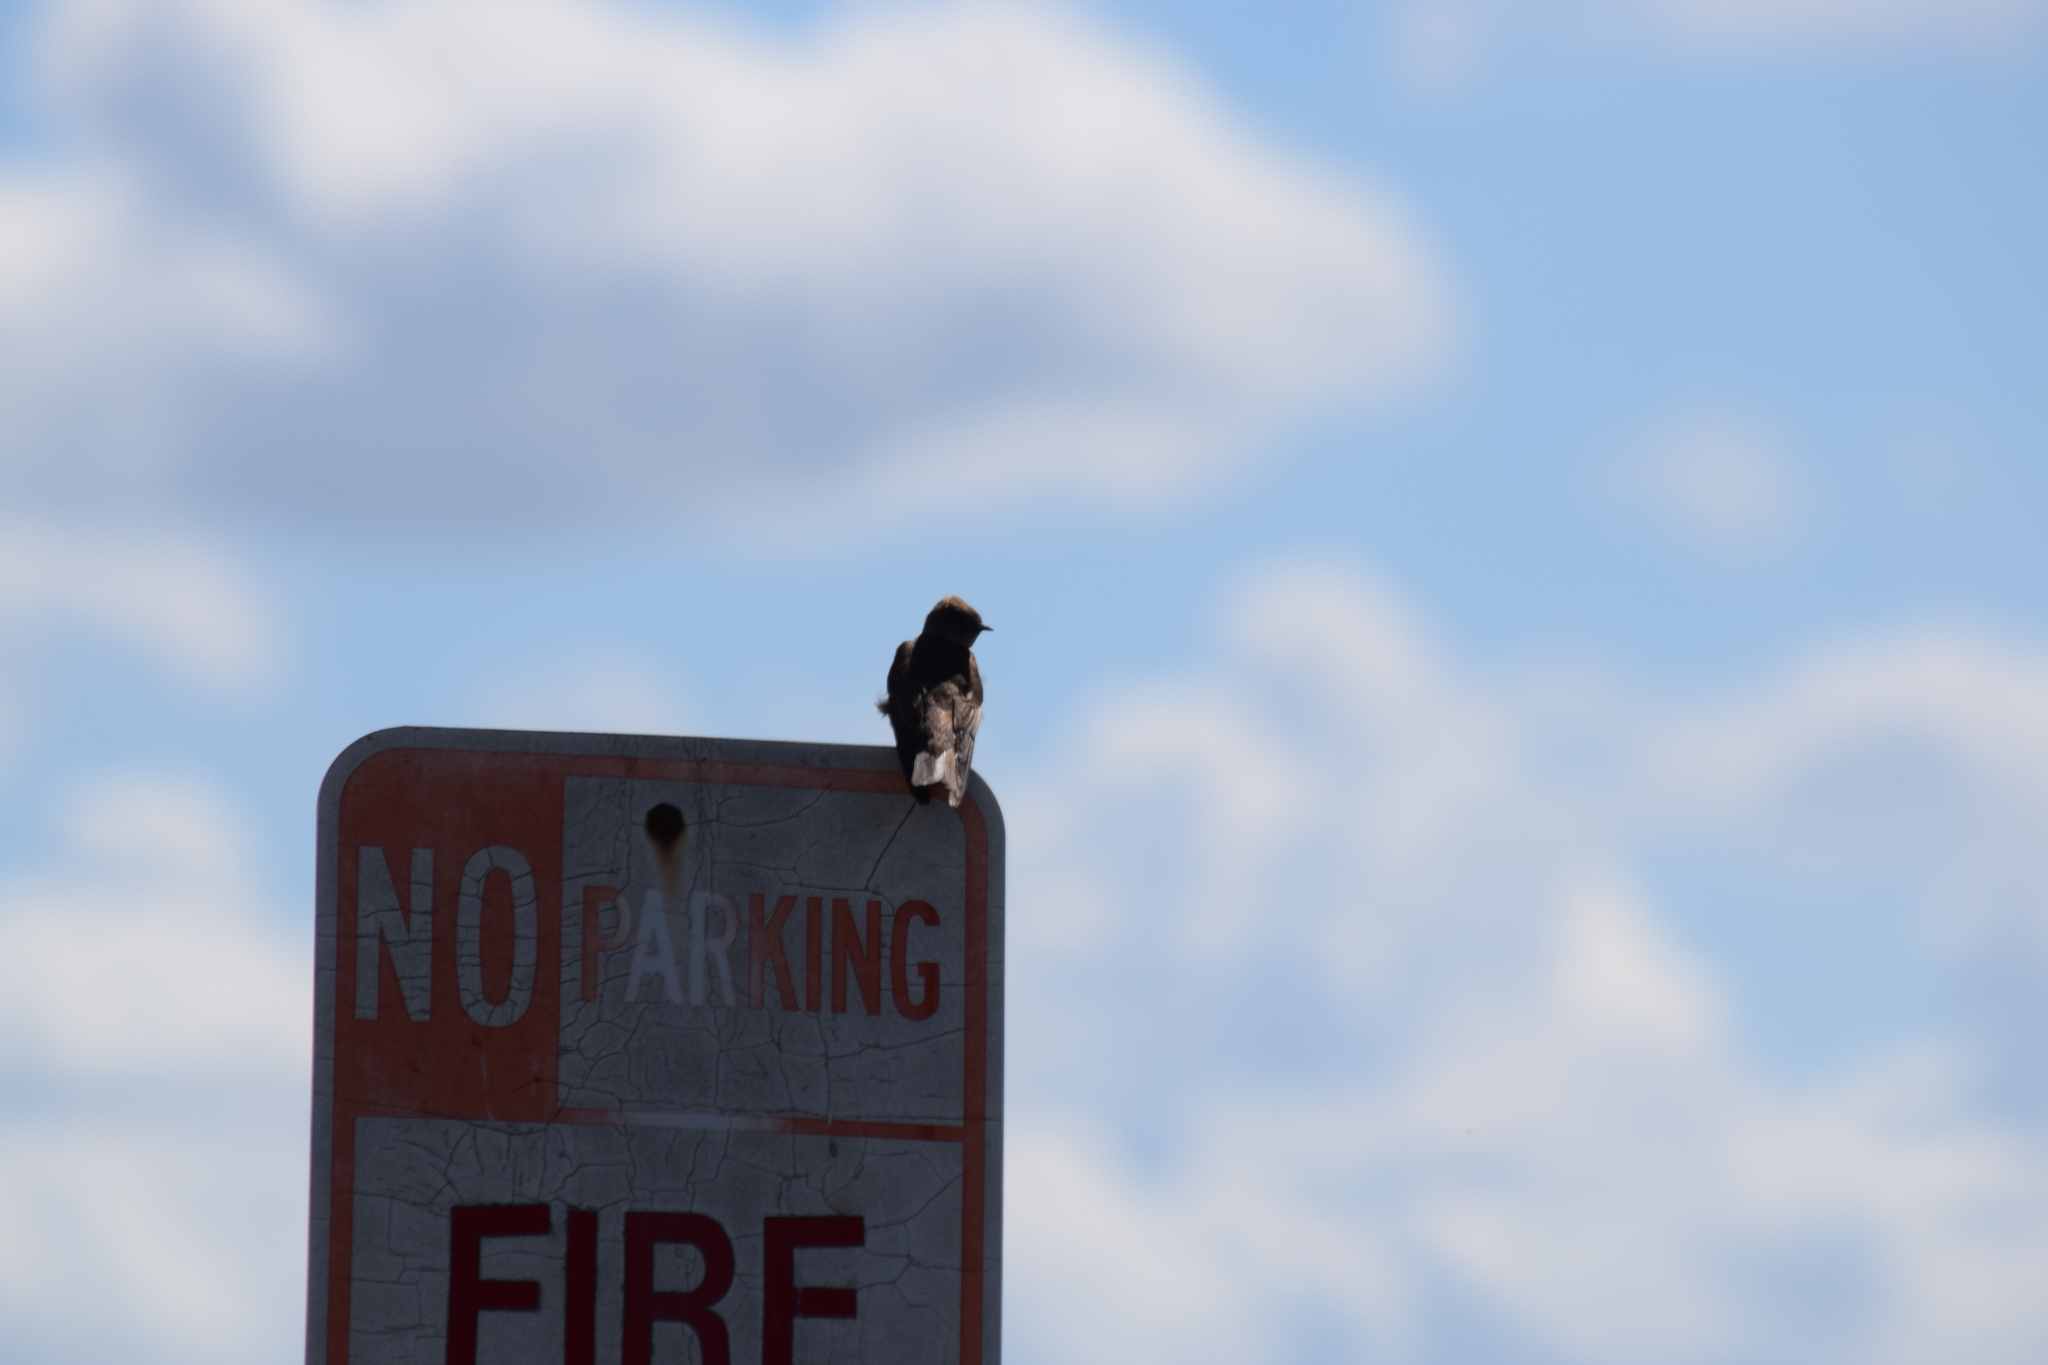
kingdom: Animalia
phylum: Chordata
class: Aves
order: Passeriformes
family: Hirundinidae
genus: Stelgidopteryx
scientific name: Stelgidopteryx serripennis
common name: Northern rough-winged swallow
